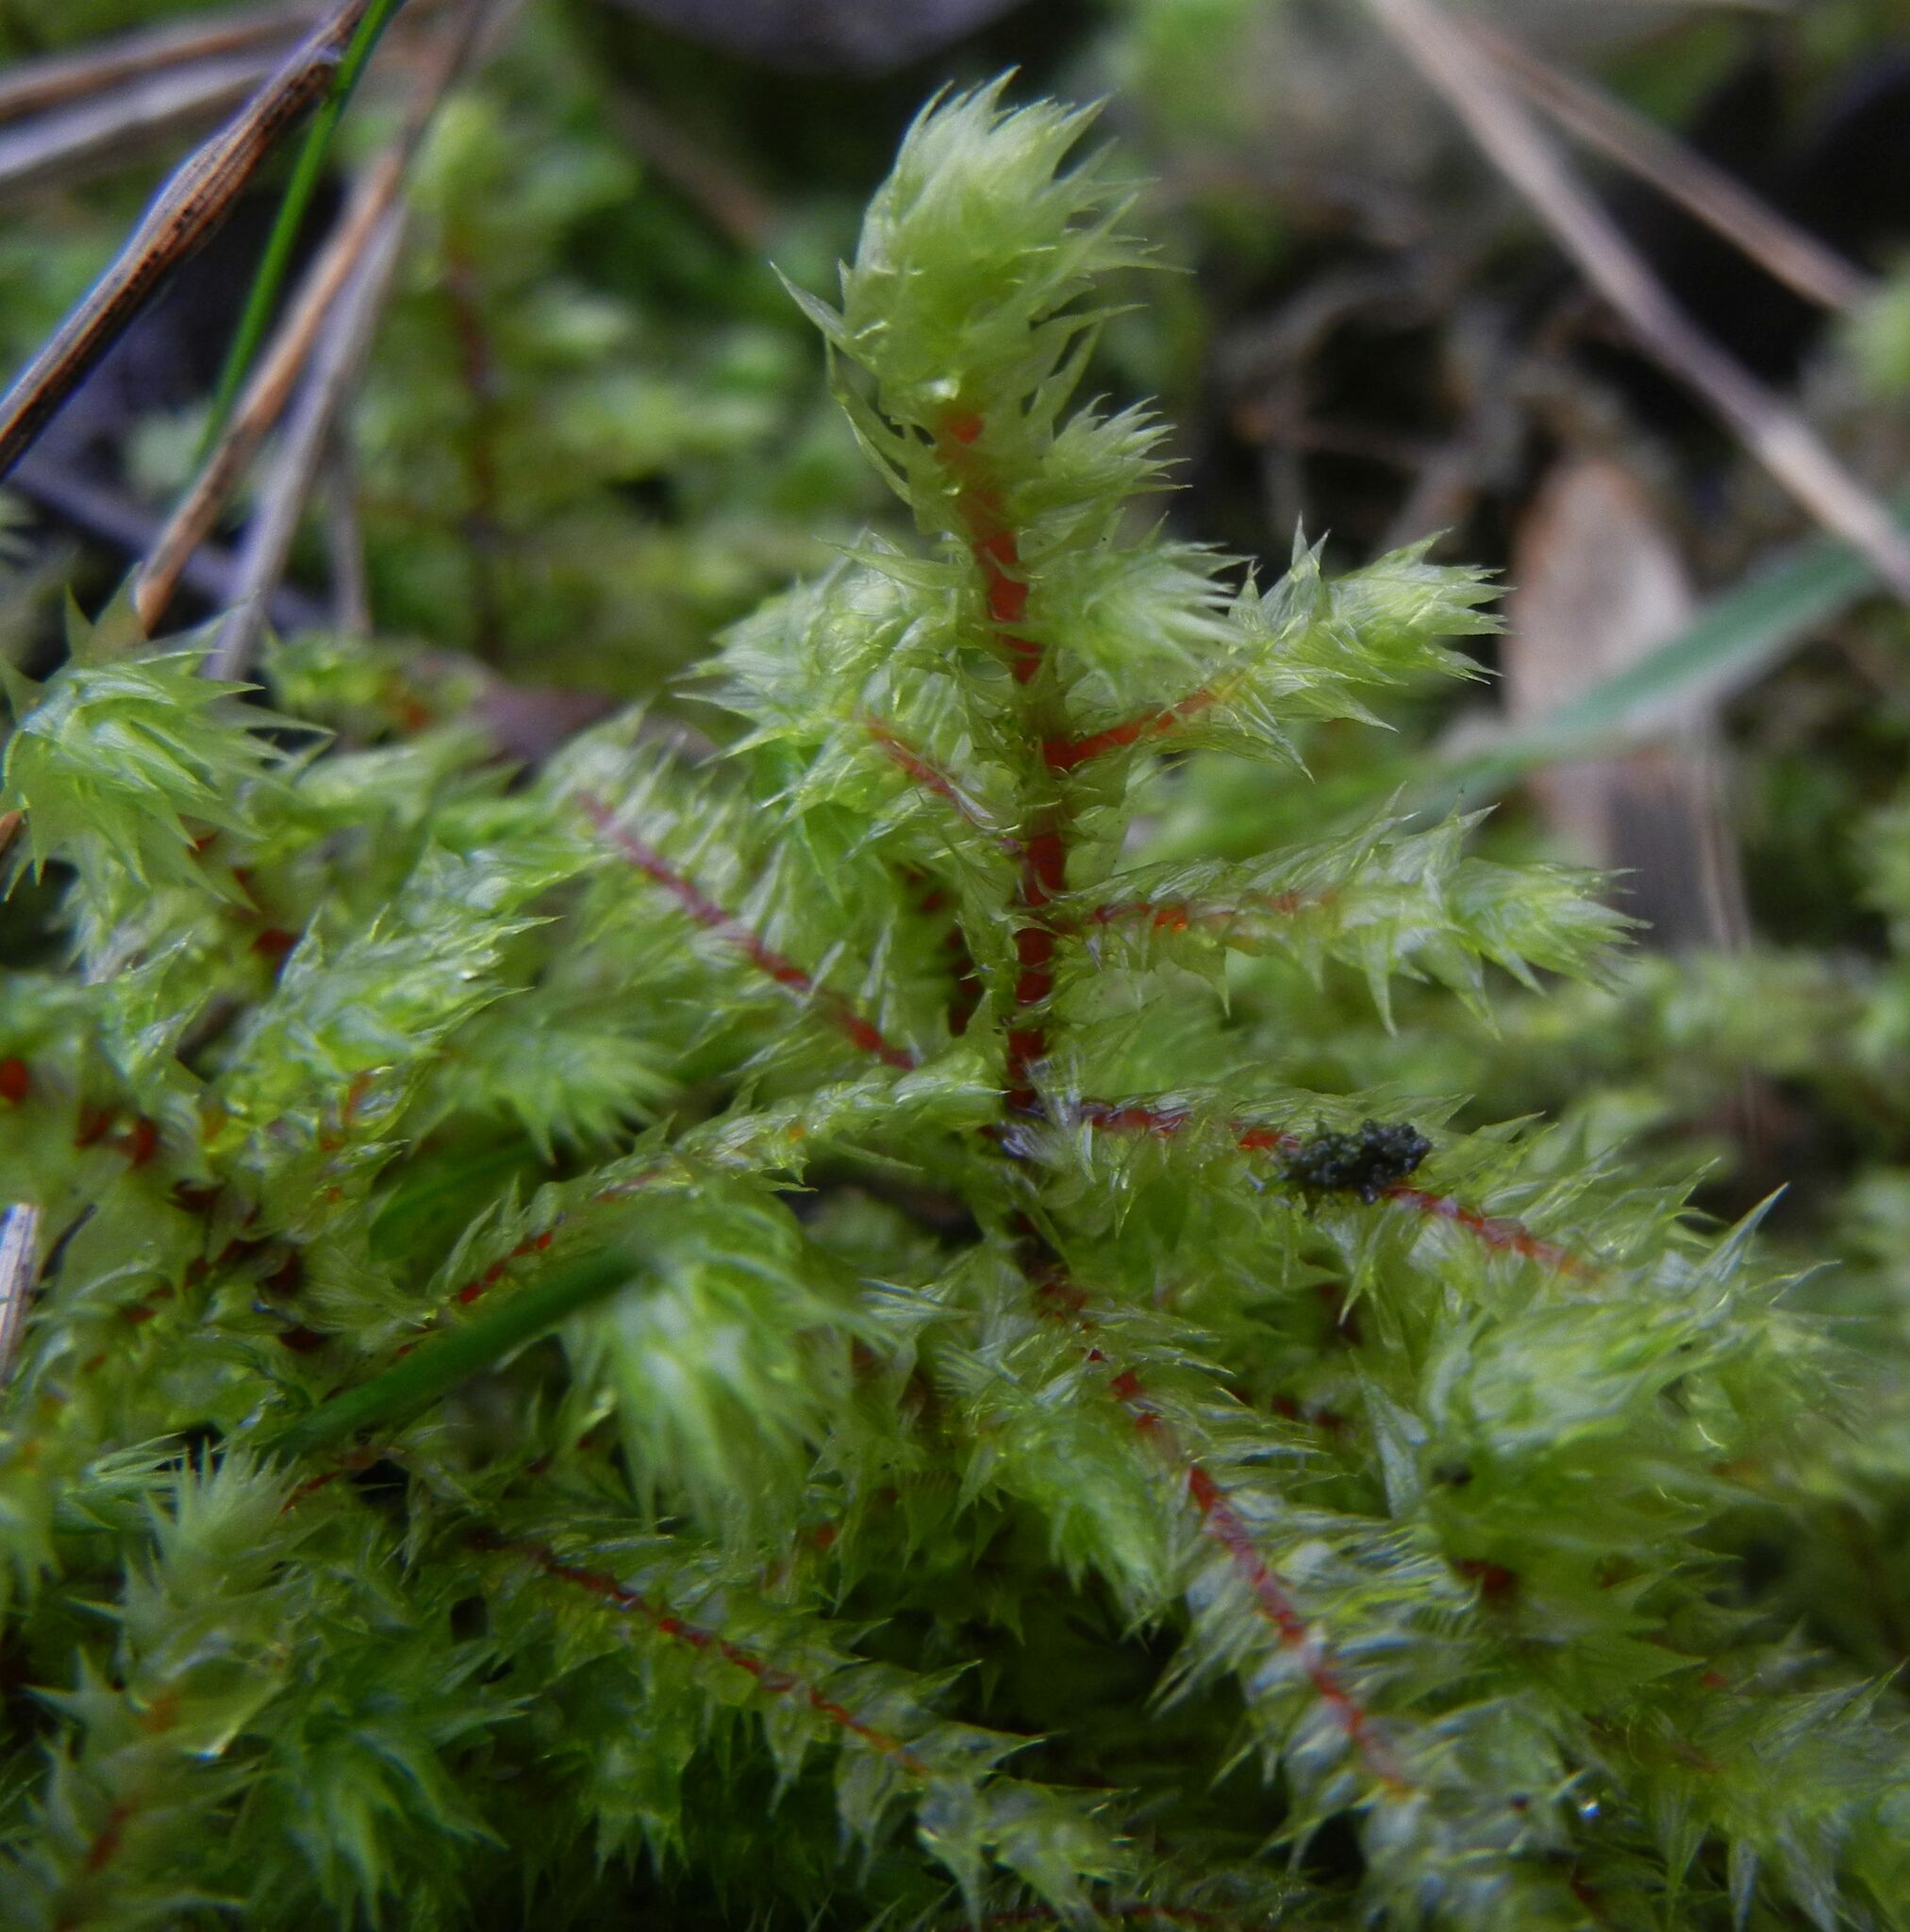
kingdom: Plantae
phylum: Bryophyta
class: Bryopsida
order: Hypnales
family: Hylocomiaceae
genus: Hylocomiadelphus
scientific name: Hylocomiadelphus triquetrus
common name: Rough goose neck moss
